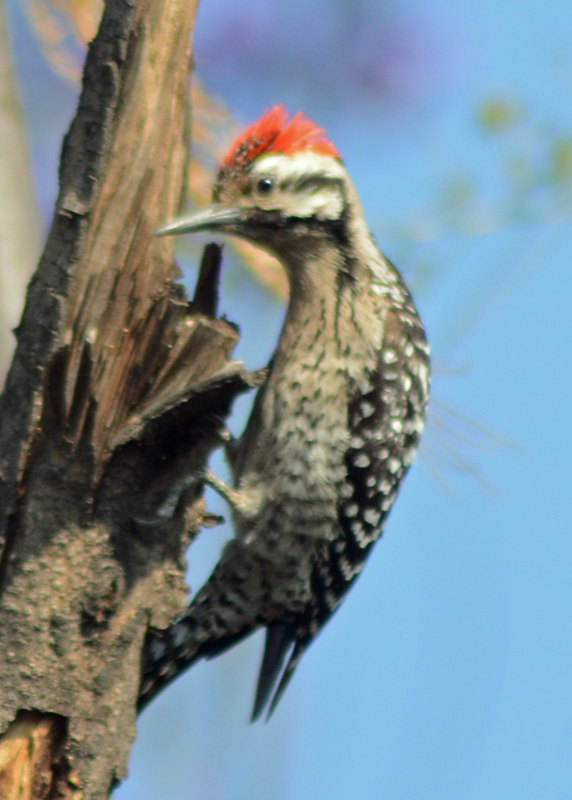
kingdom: Animalia
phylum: Chordata
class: Aves
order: Piciformes
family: Picidae
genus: Dryobates
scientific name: Dryobates scalaris
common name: Ladder-backed woodpecker
